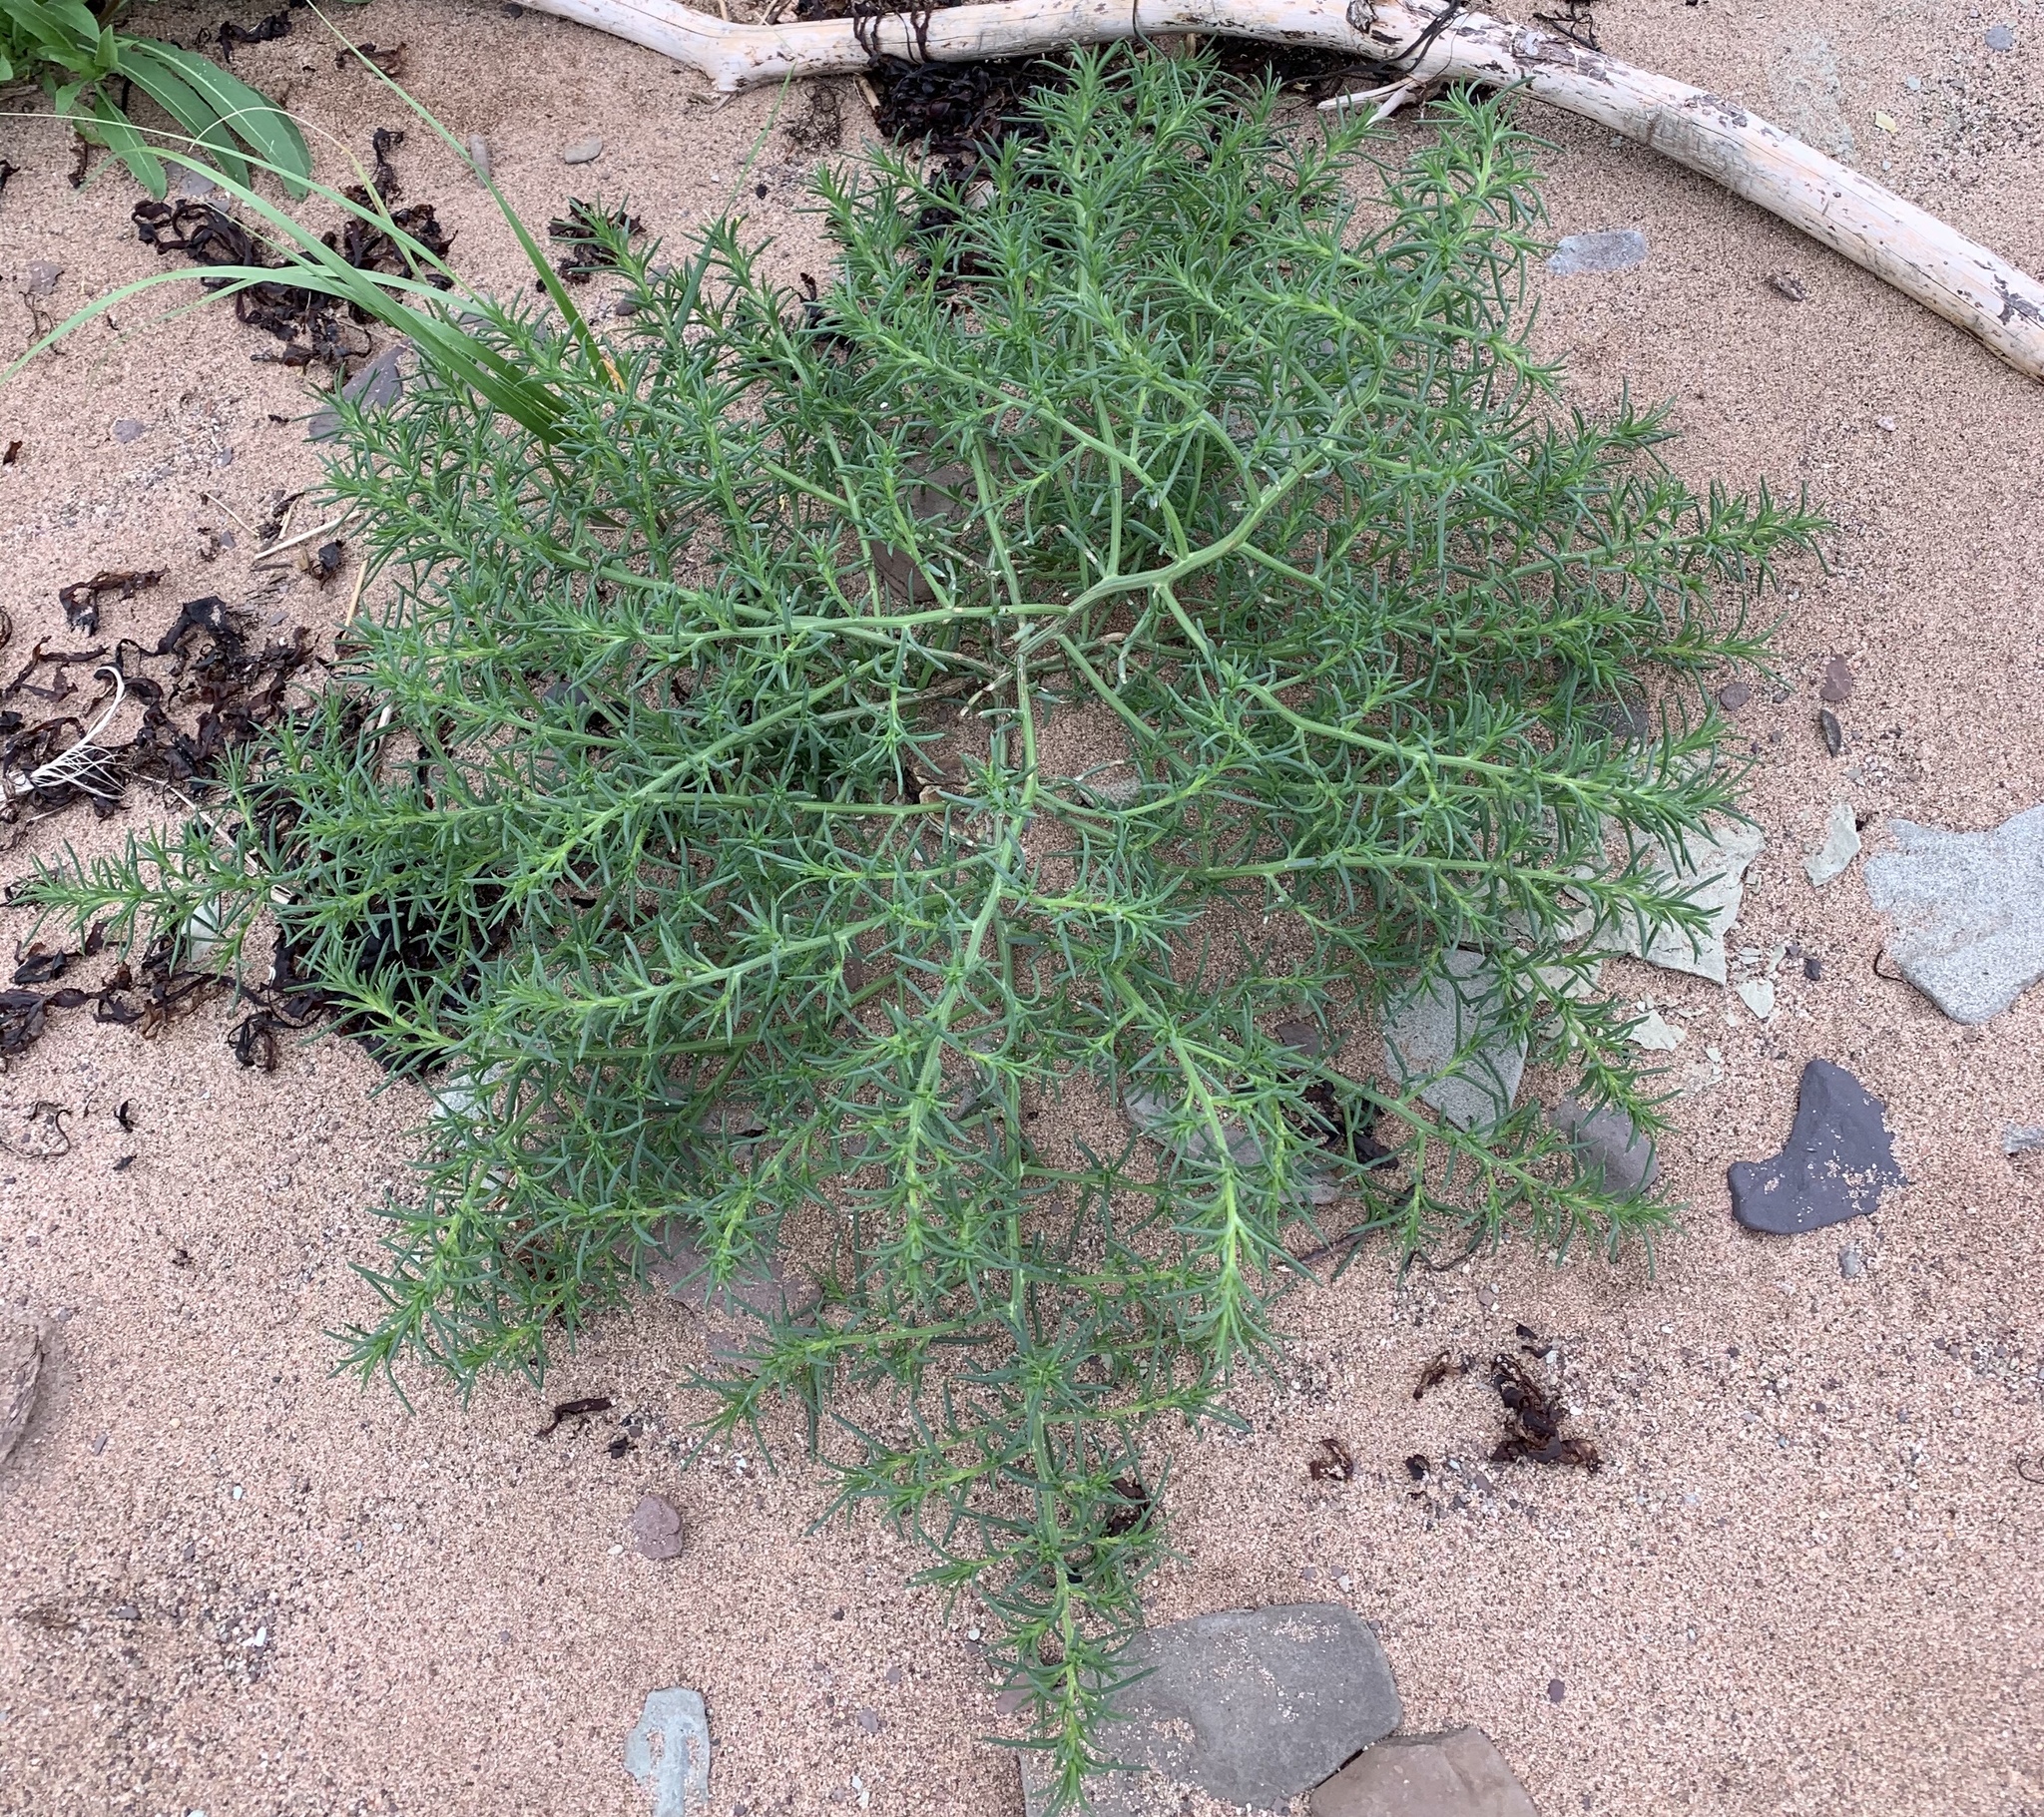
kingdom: Plantae
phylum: Tracheophyta
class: Magnoliopsida
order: Caryophyllales
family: Amaranthaceae
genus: Salsola
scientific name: Salsola kali
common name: Saltwort
